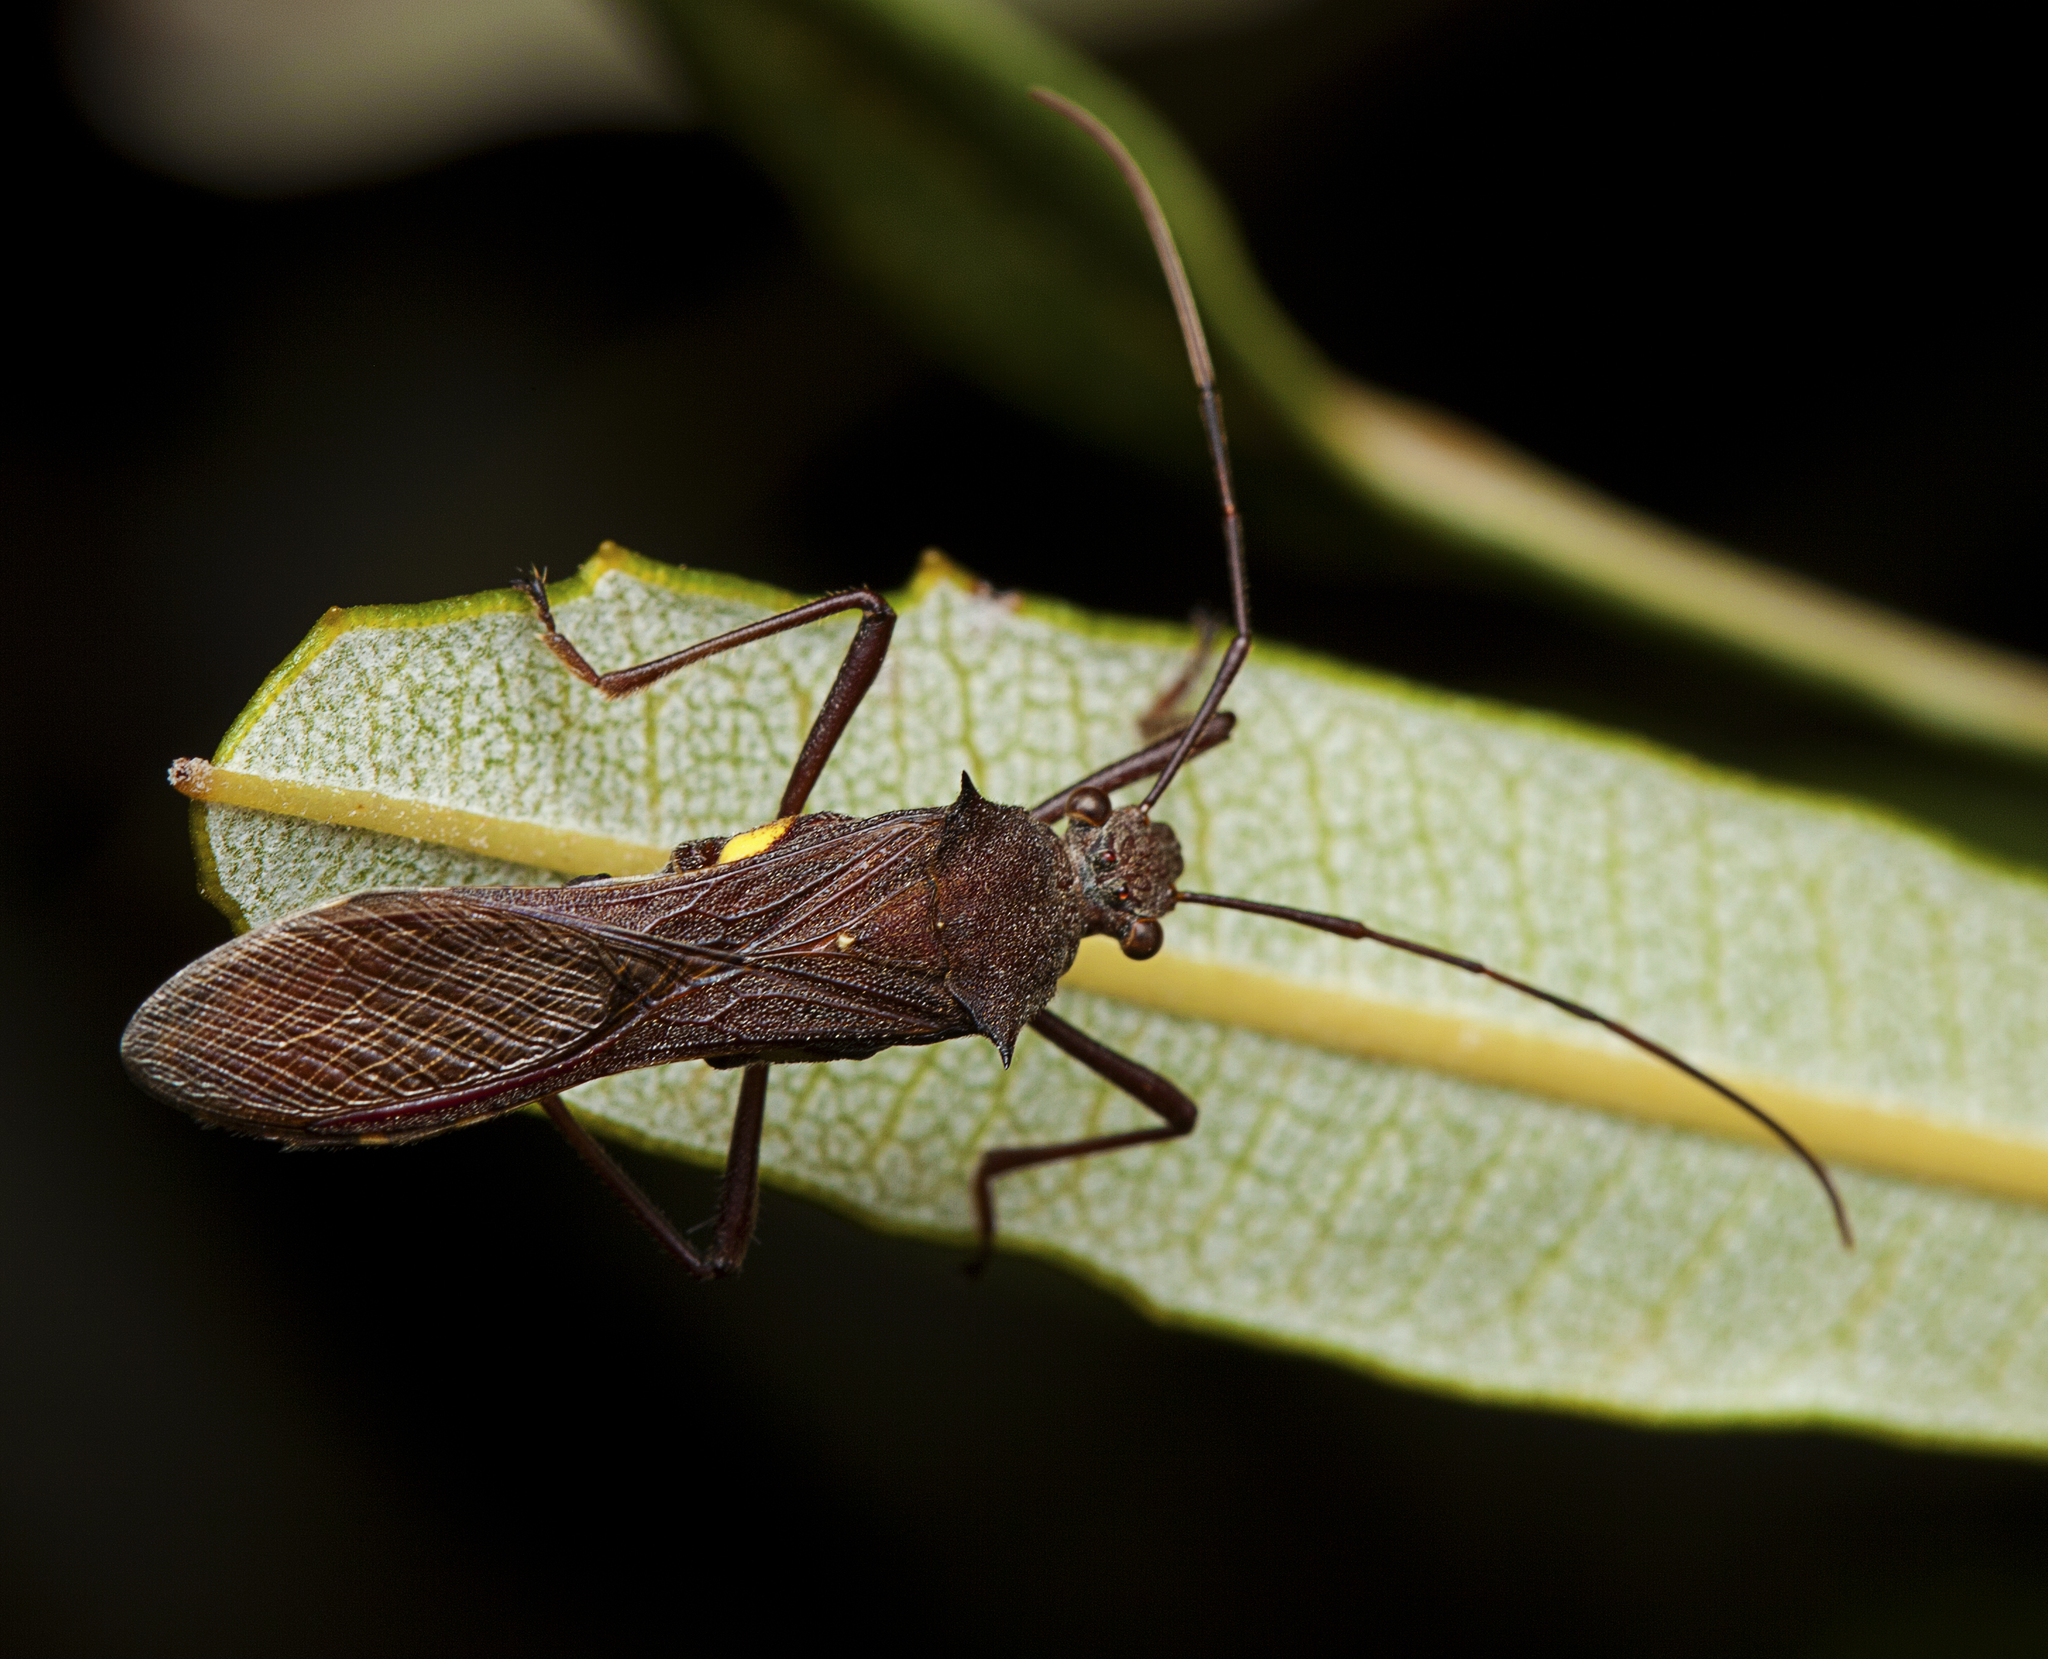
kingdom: Animalia
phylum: Arthropoda
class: Insecta
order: Hemiptera
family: Alydidae
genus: Riptortus
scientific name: Riptortus serripes
